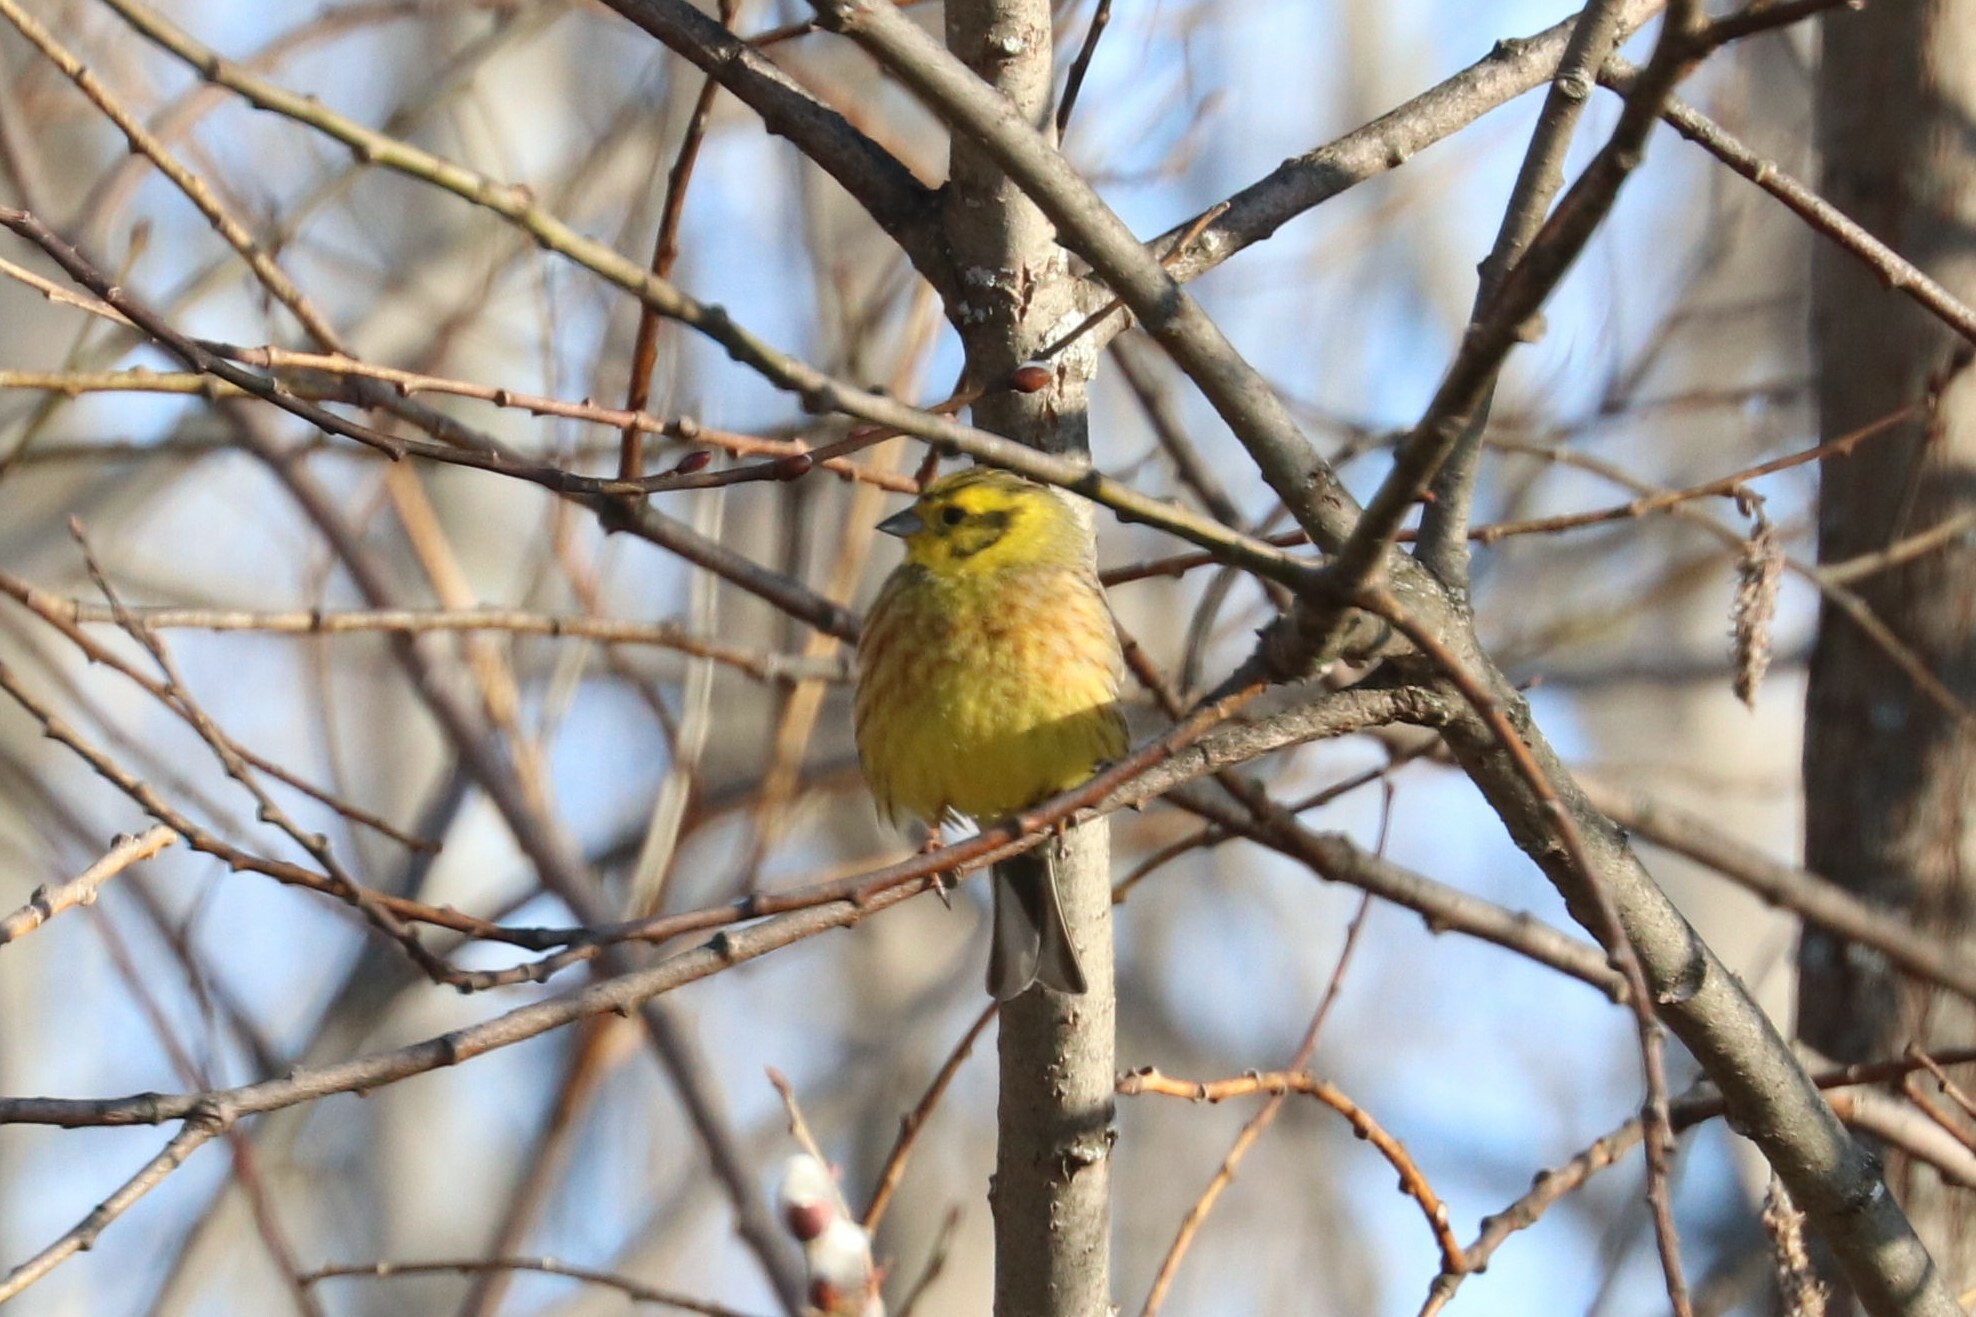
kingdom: Animalia
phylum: Chordata
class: Aves
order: Passeriformes
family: Emberizidae
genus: Emberiza
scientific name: Emberiza citrinella
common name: Yellowhammer
